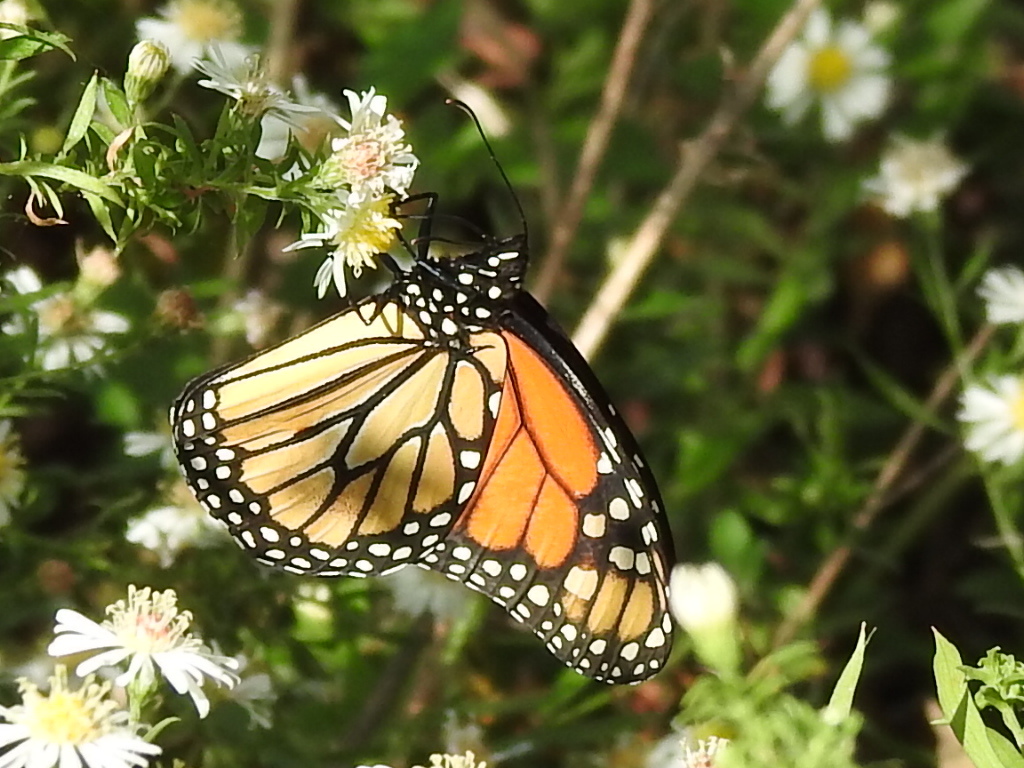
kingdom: Animalia
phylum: Arthropoda
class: Insecta
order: Lepidoptera
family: Nymphalidae
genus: Danaus
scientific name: Danaus plexippus
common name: Monarch
